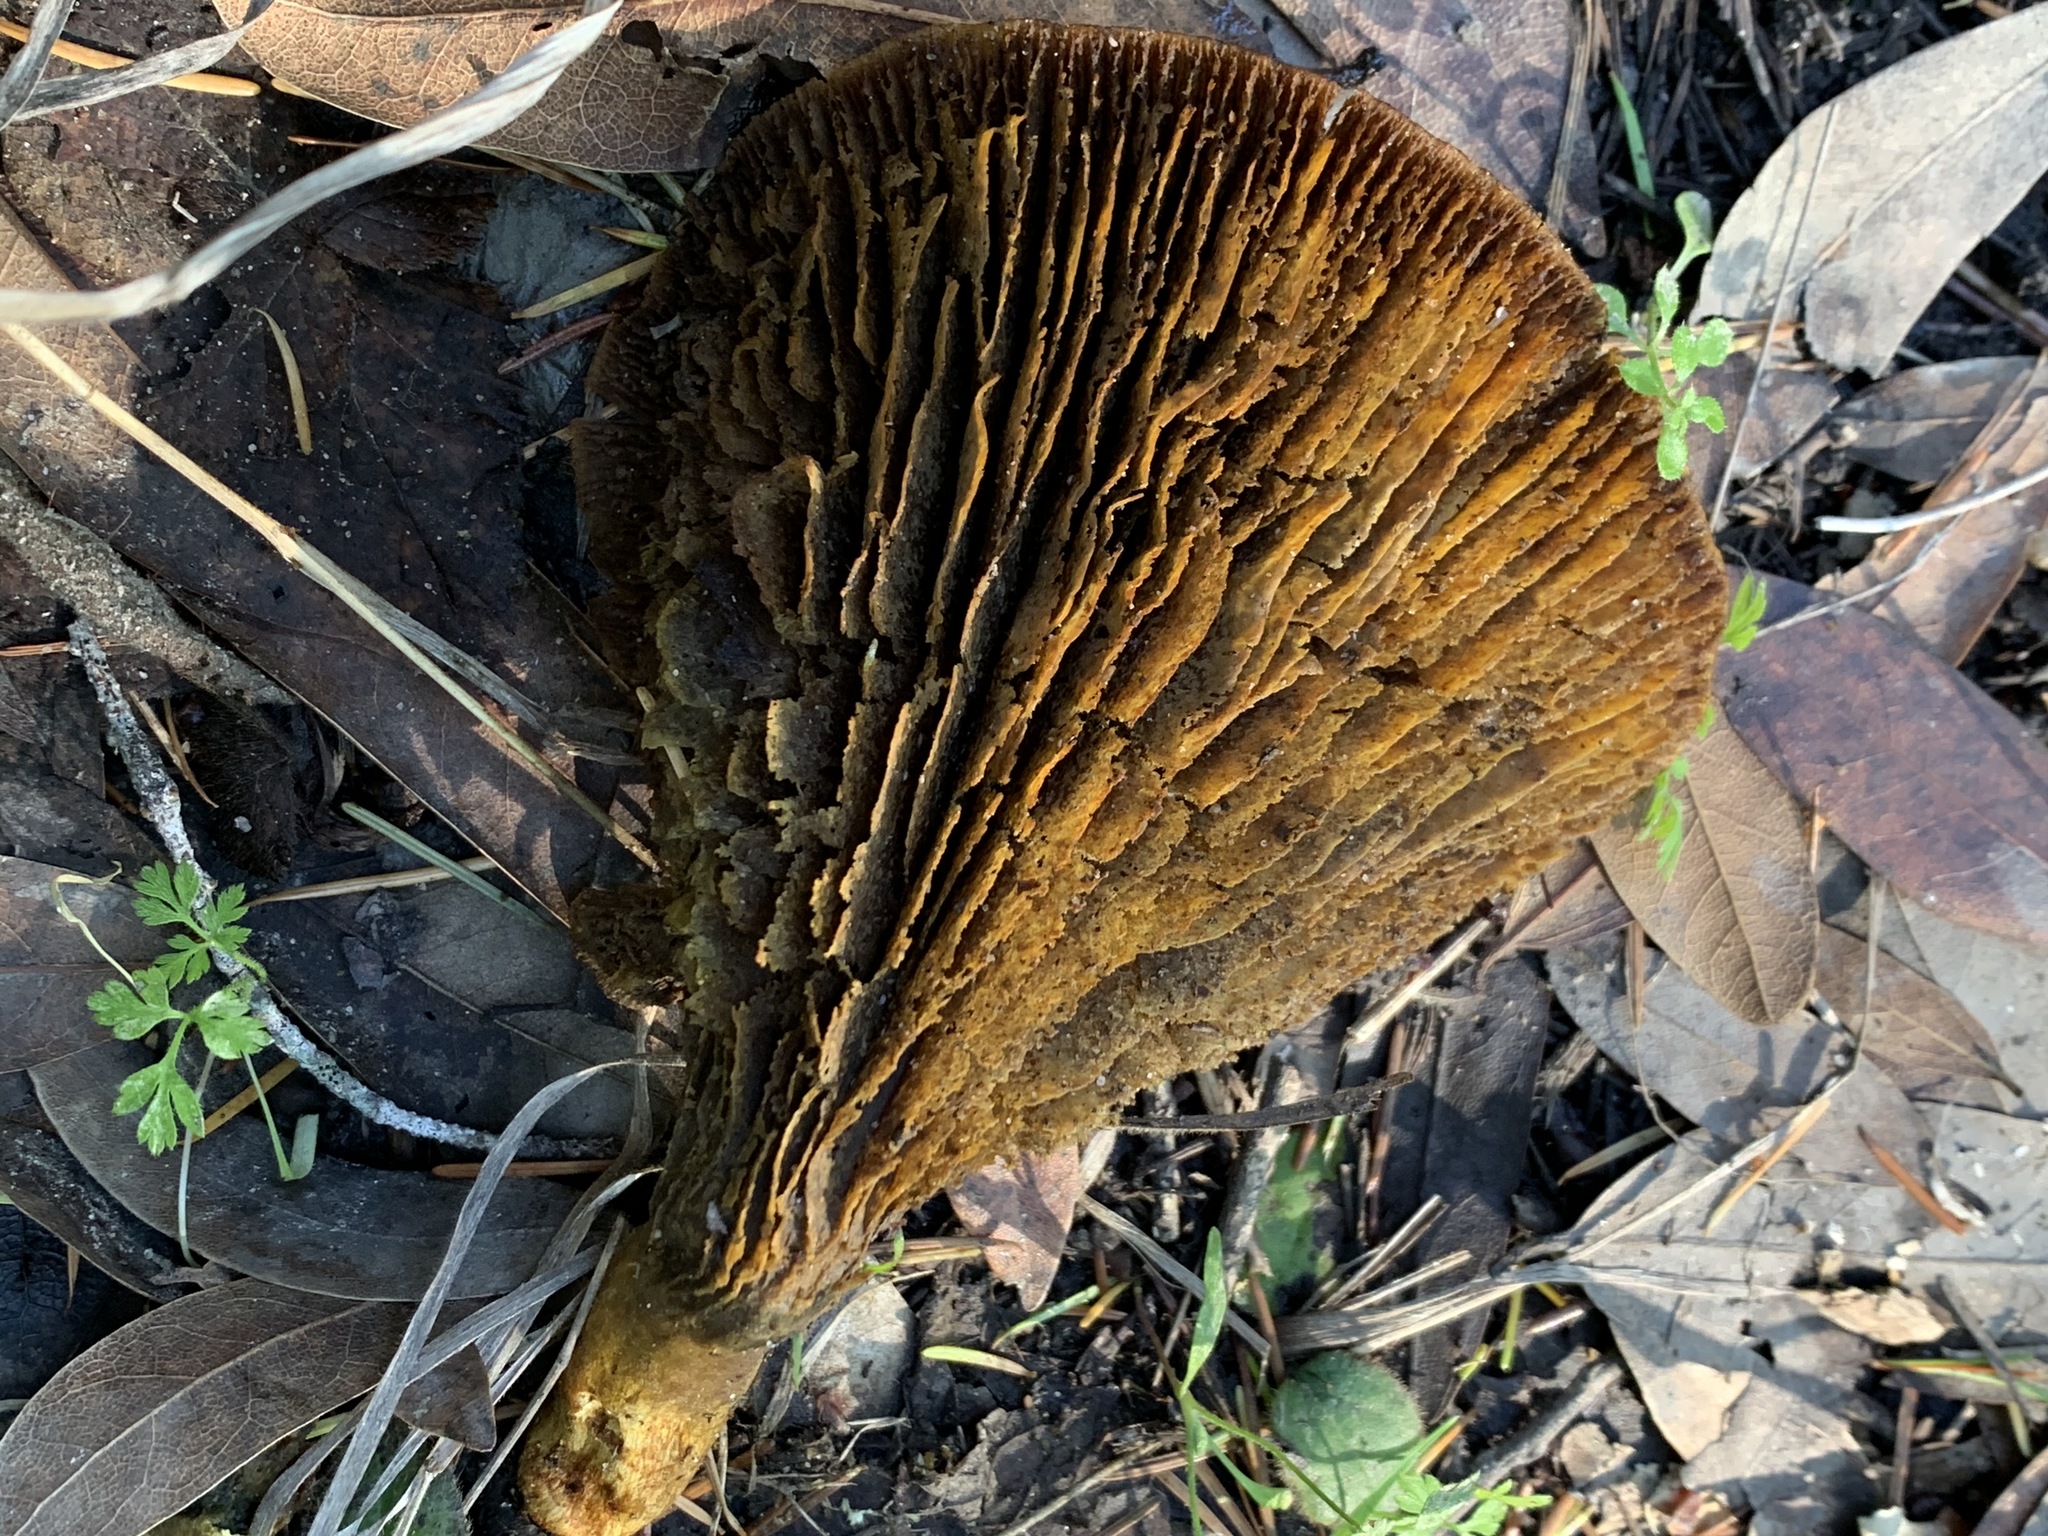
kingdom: Fungi
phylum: Basidiomycota
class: Agaricomycetes
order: Agaricales
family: Omphalotaceae
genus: Omphalotus
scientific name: Omphalotus olivascens
